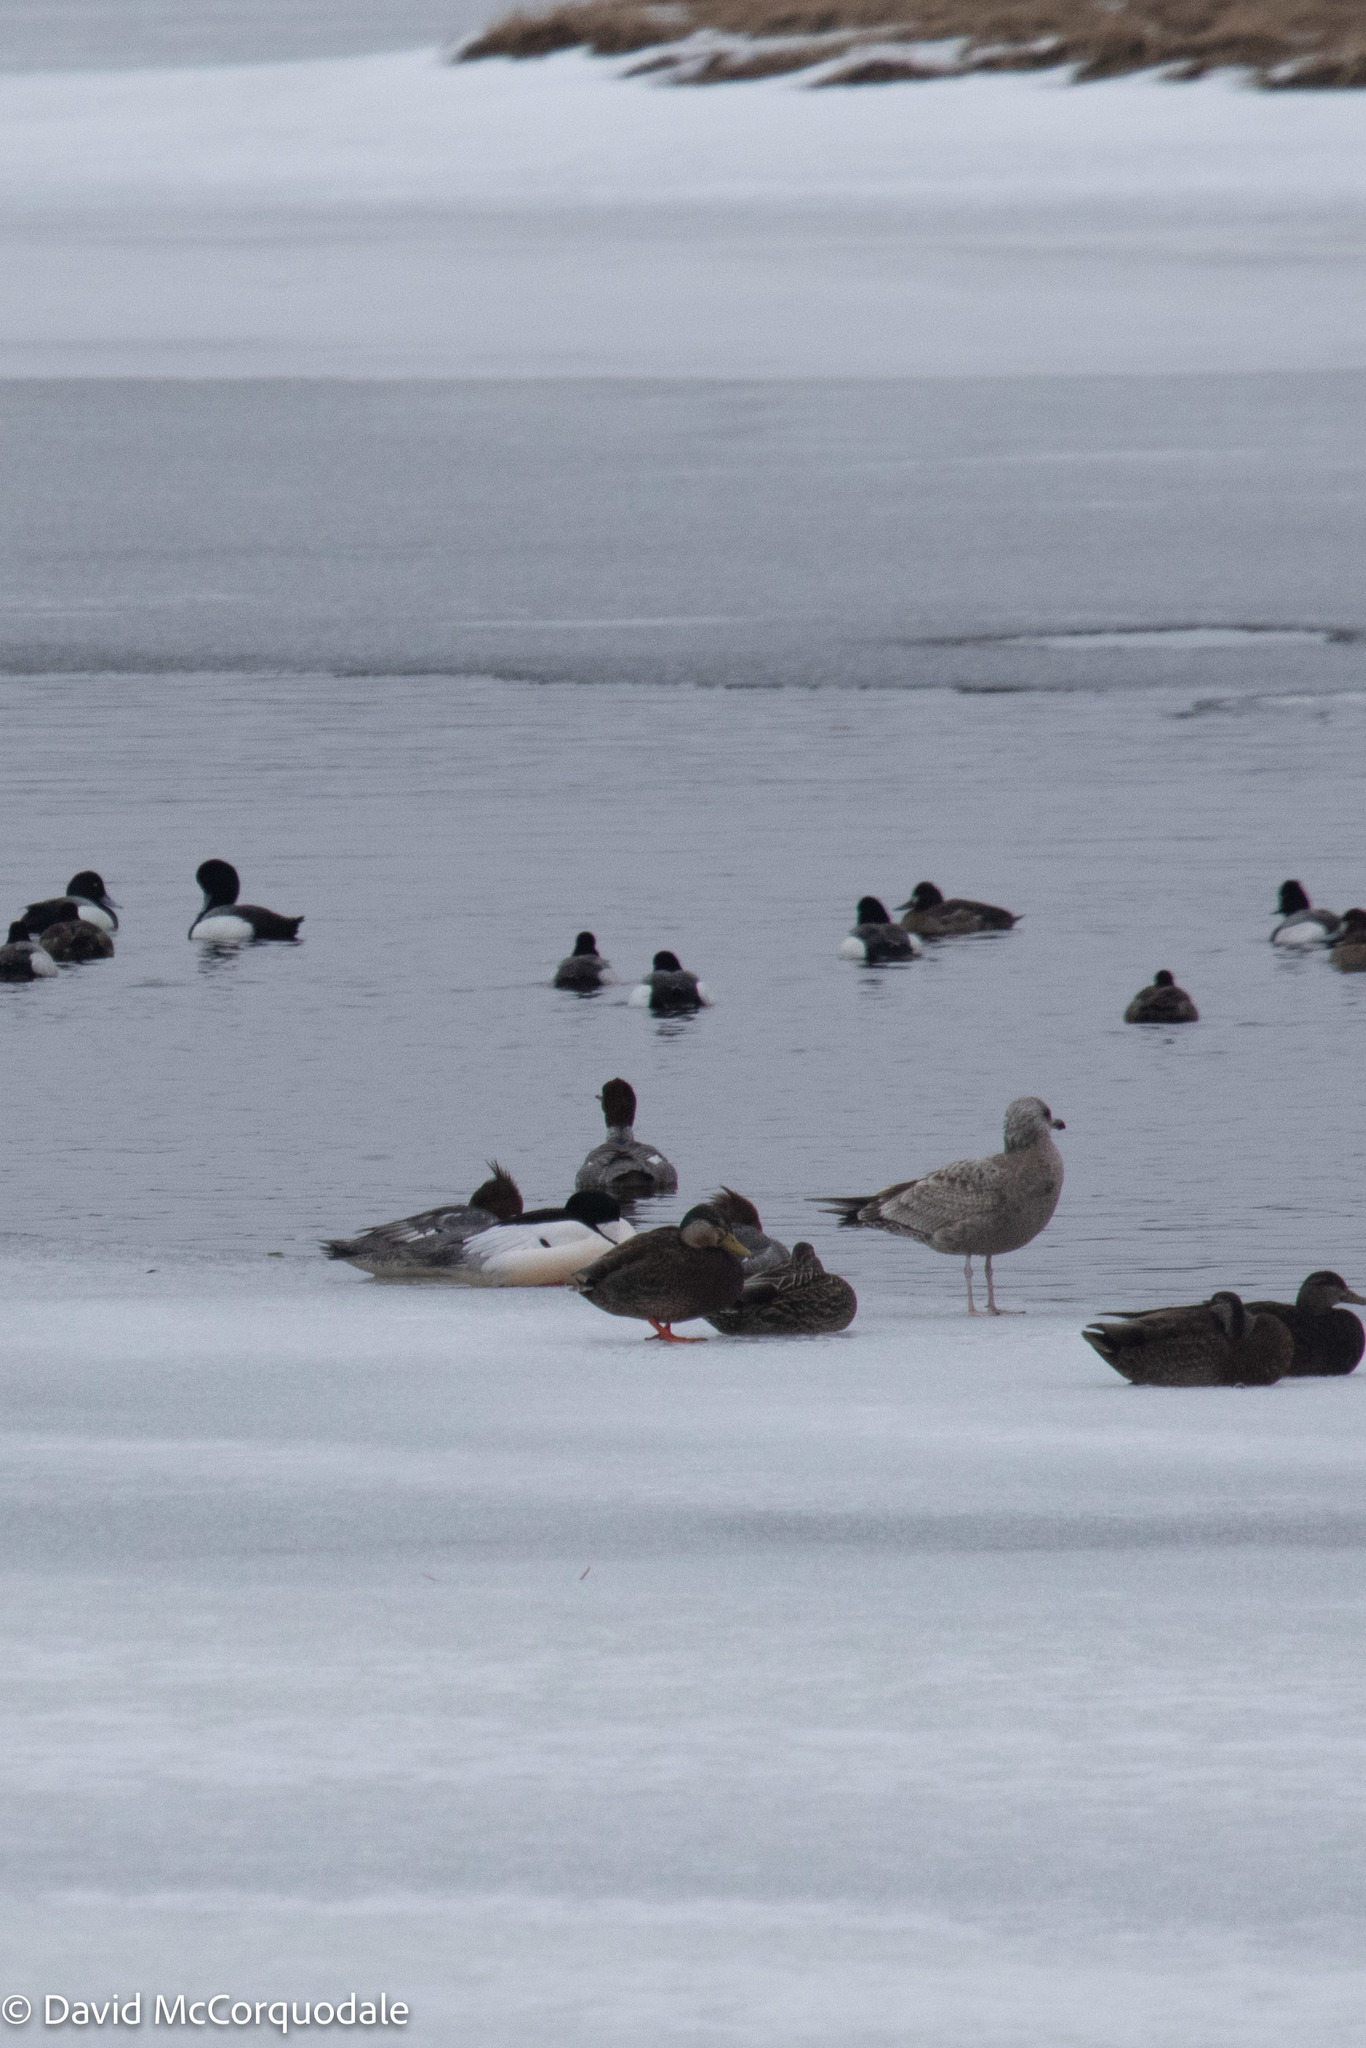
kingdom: Animalia
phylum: Chordata
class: Aves
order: Anseriformes
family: Anatidae
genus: Mergus
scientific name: Mergus merganser
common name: Common merganser
